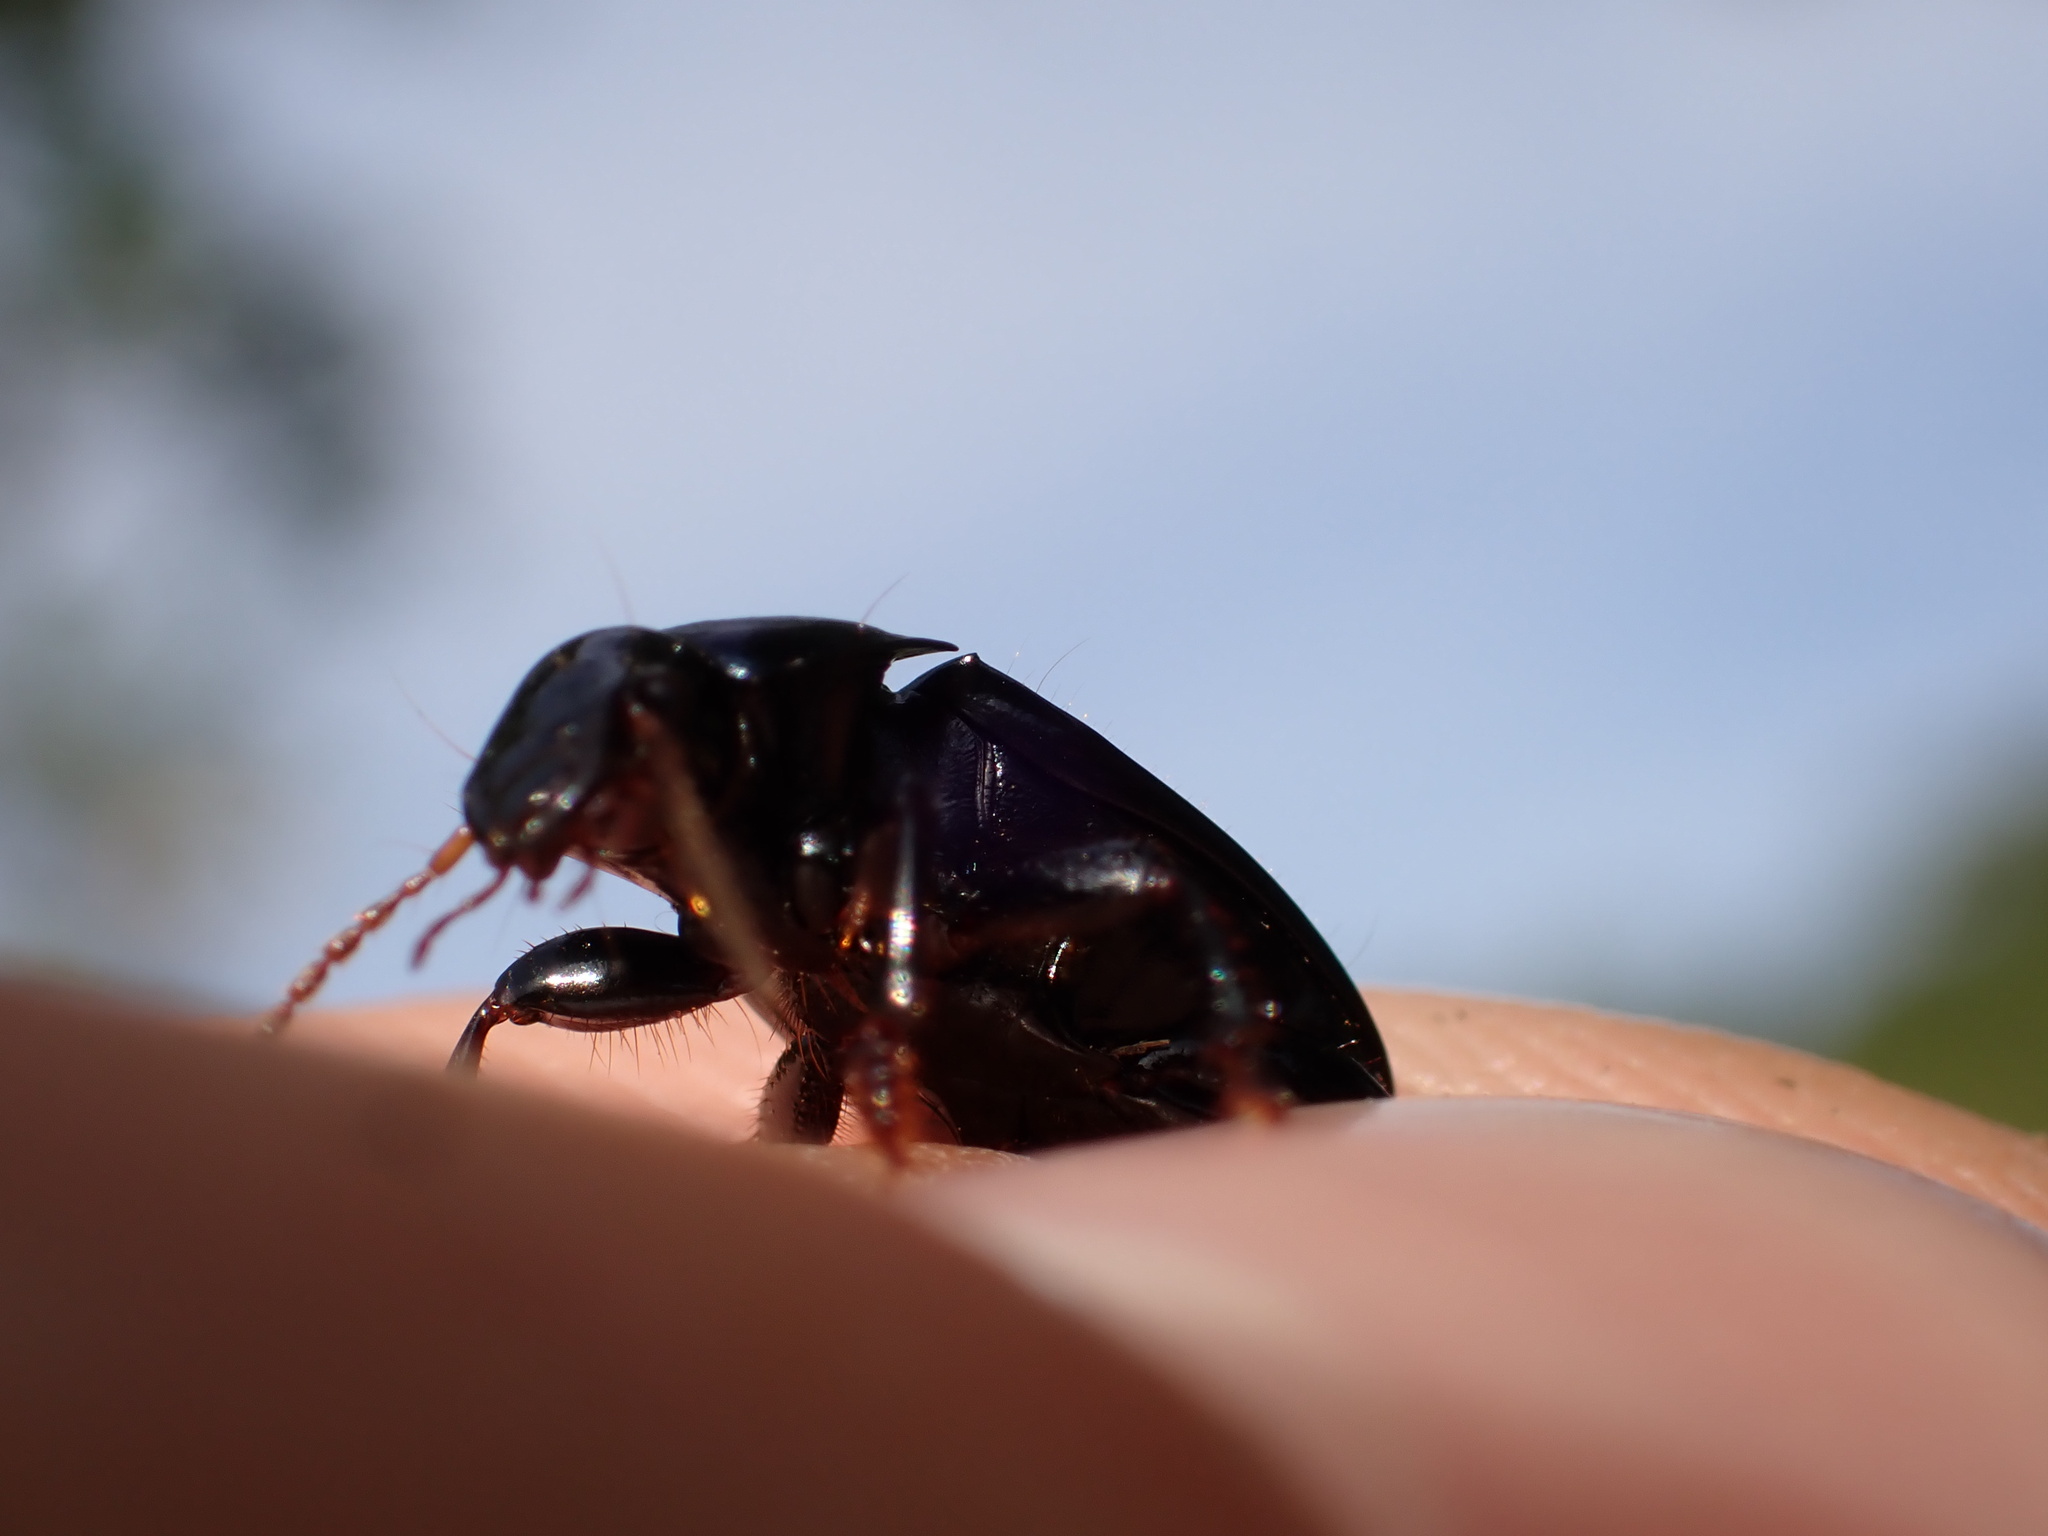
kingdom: Animalia
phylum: Arthropoda
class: Insecta
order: Coleoptera
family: Carabidae
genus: Harpalus
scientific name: Harpalus dimidiatus
